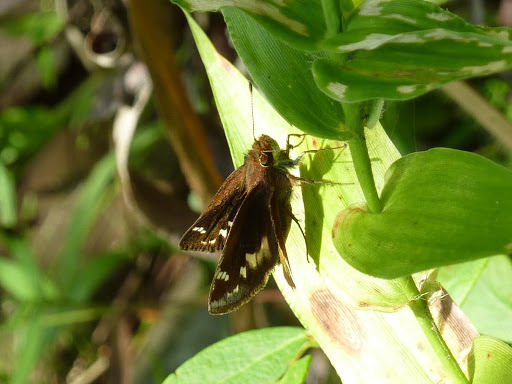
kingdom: Animalia
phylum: Arthropoda
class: Insecta
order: Lepidoptera
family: Hesperiidae
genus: Lon
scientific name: Lon zabulon
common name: Zabulon skipper
